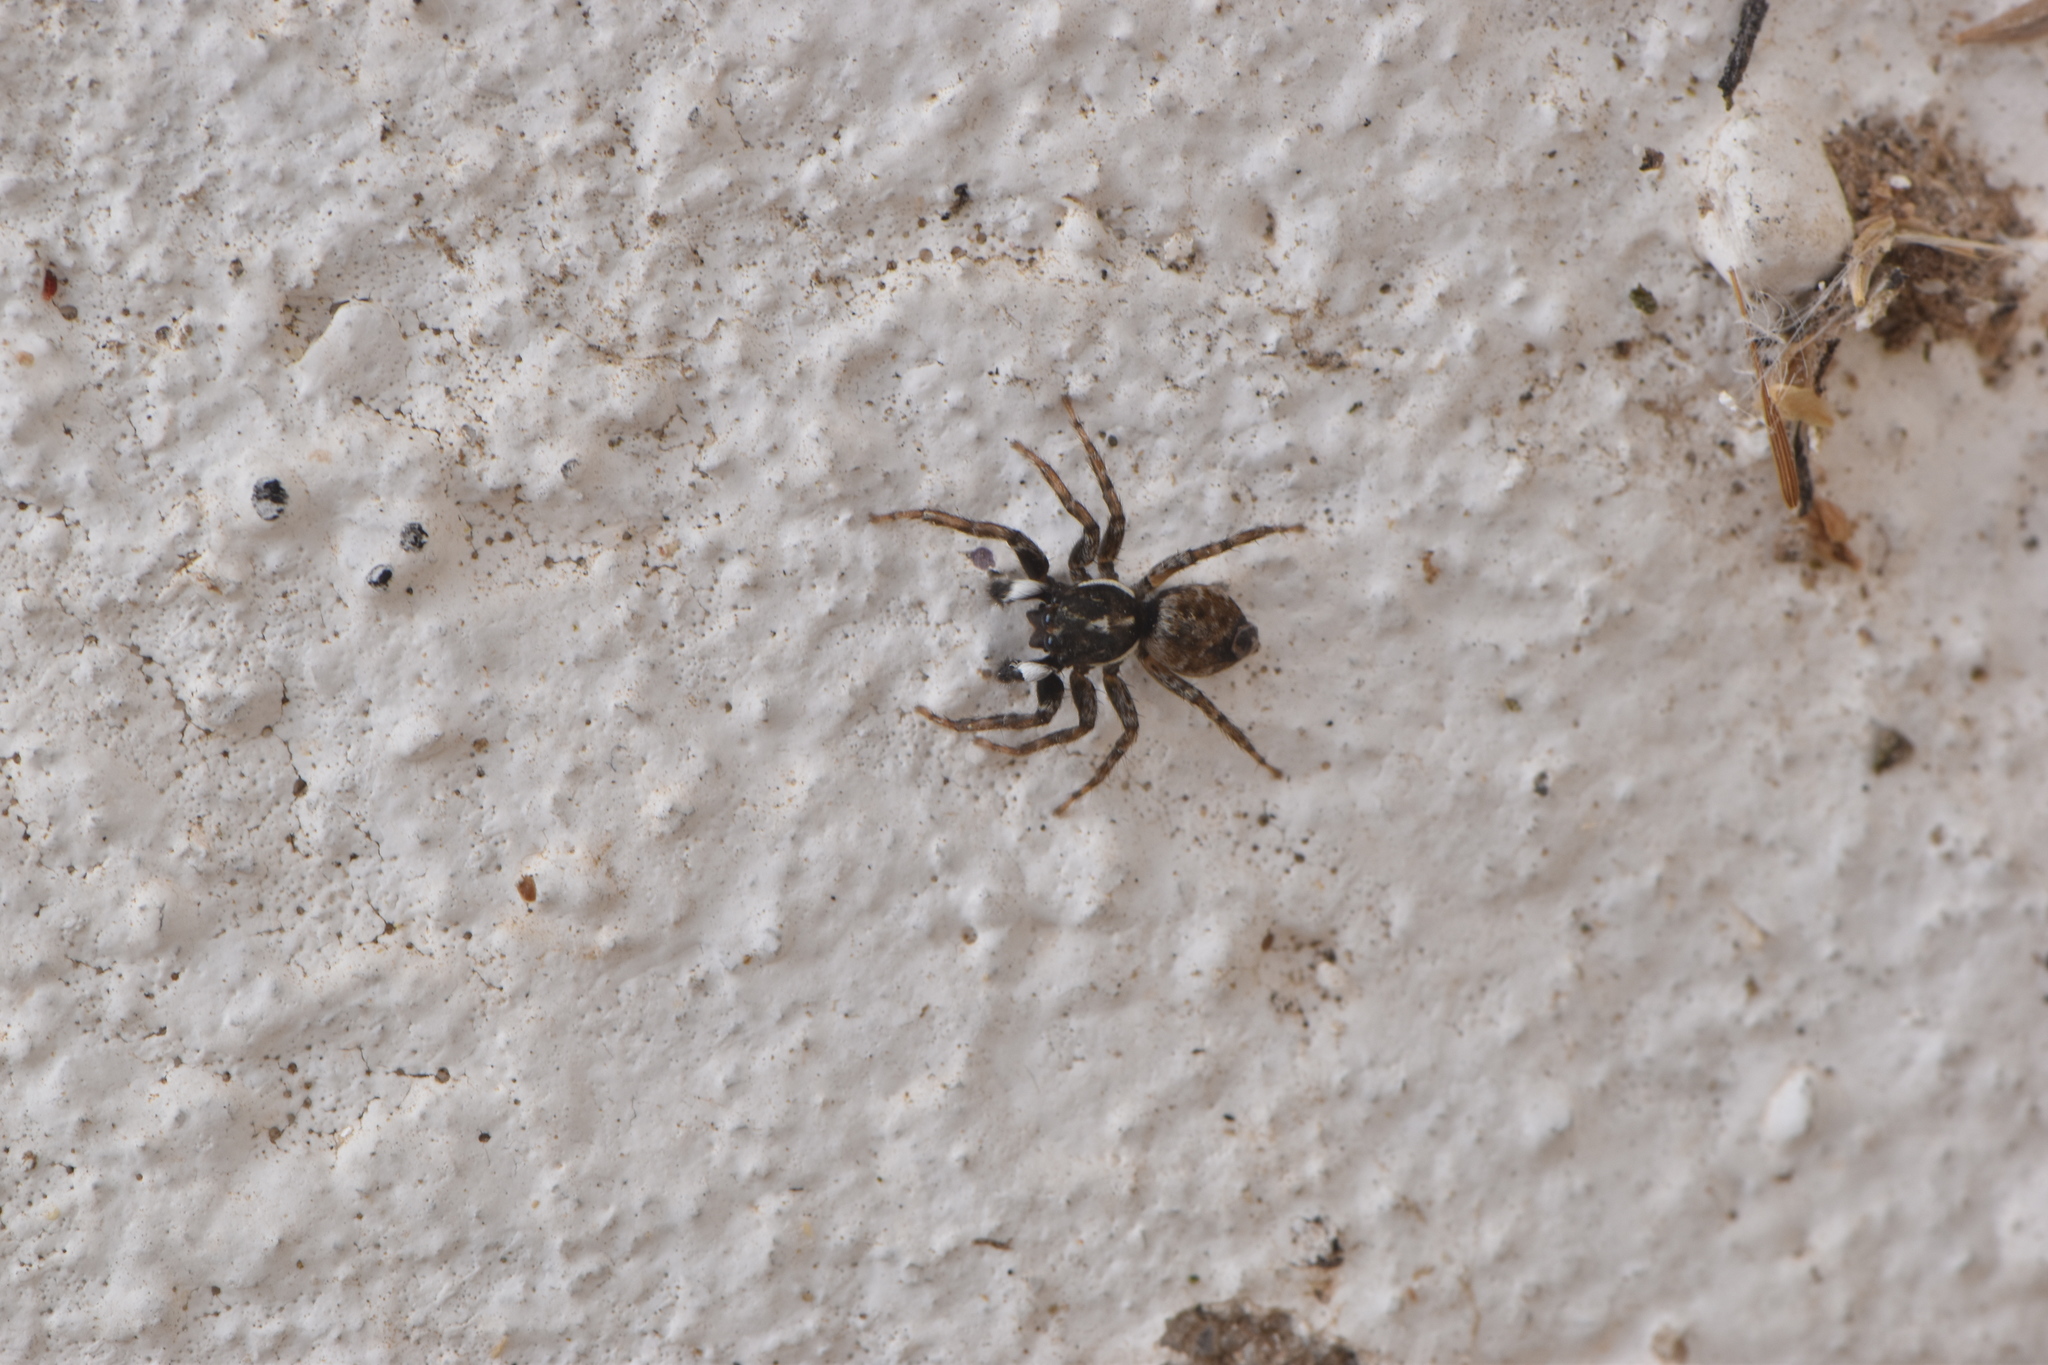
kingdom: Animalia
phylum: Arthropoda
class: Arachnida
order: Araneae
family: Salticidae
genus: Menemerus
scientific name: Menemerus semilimbatus
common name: Jumping spider
